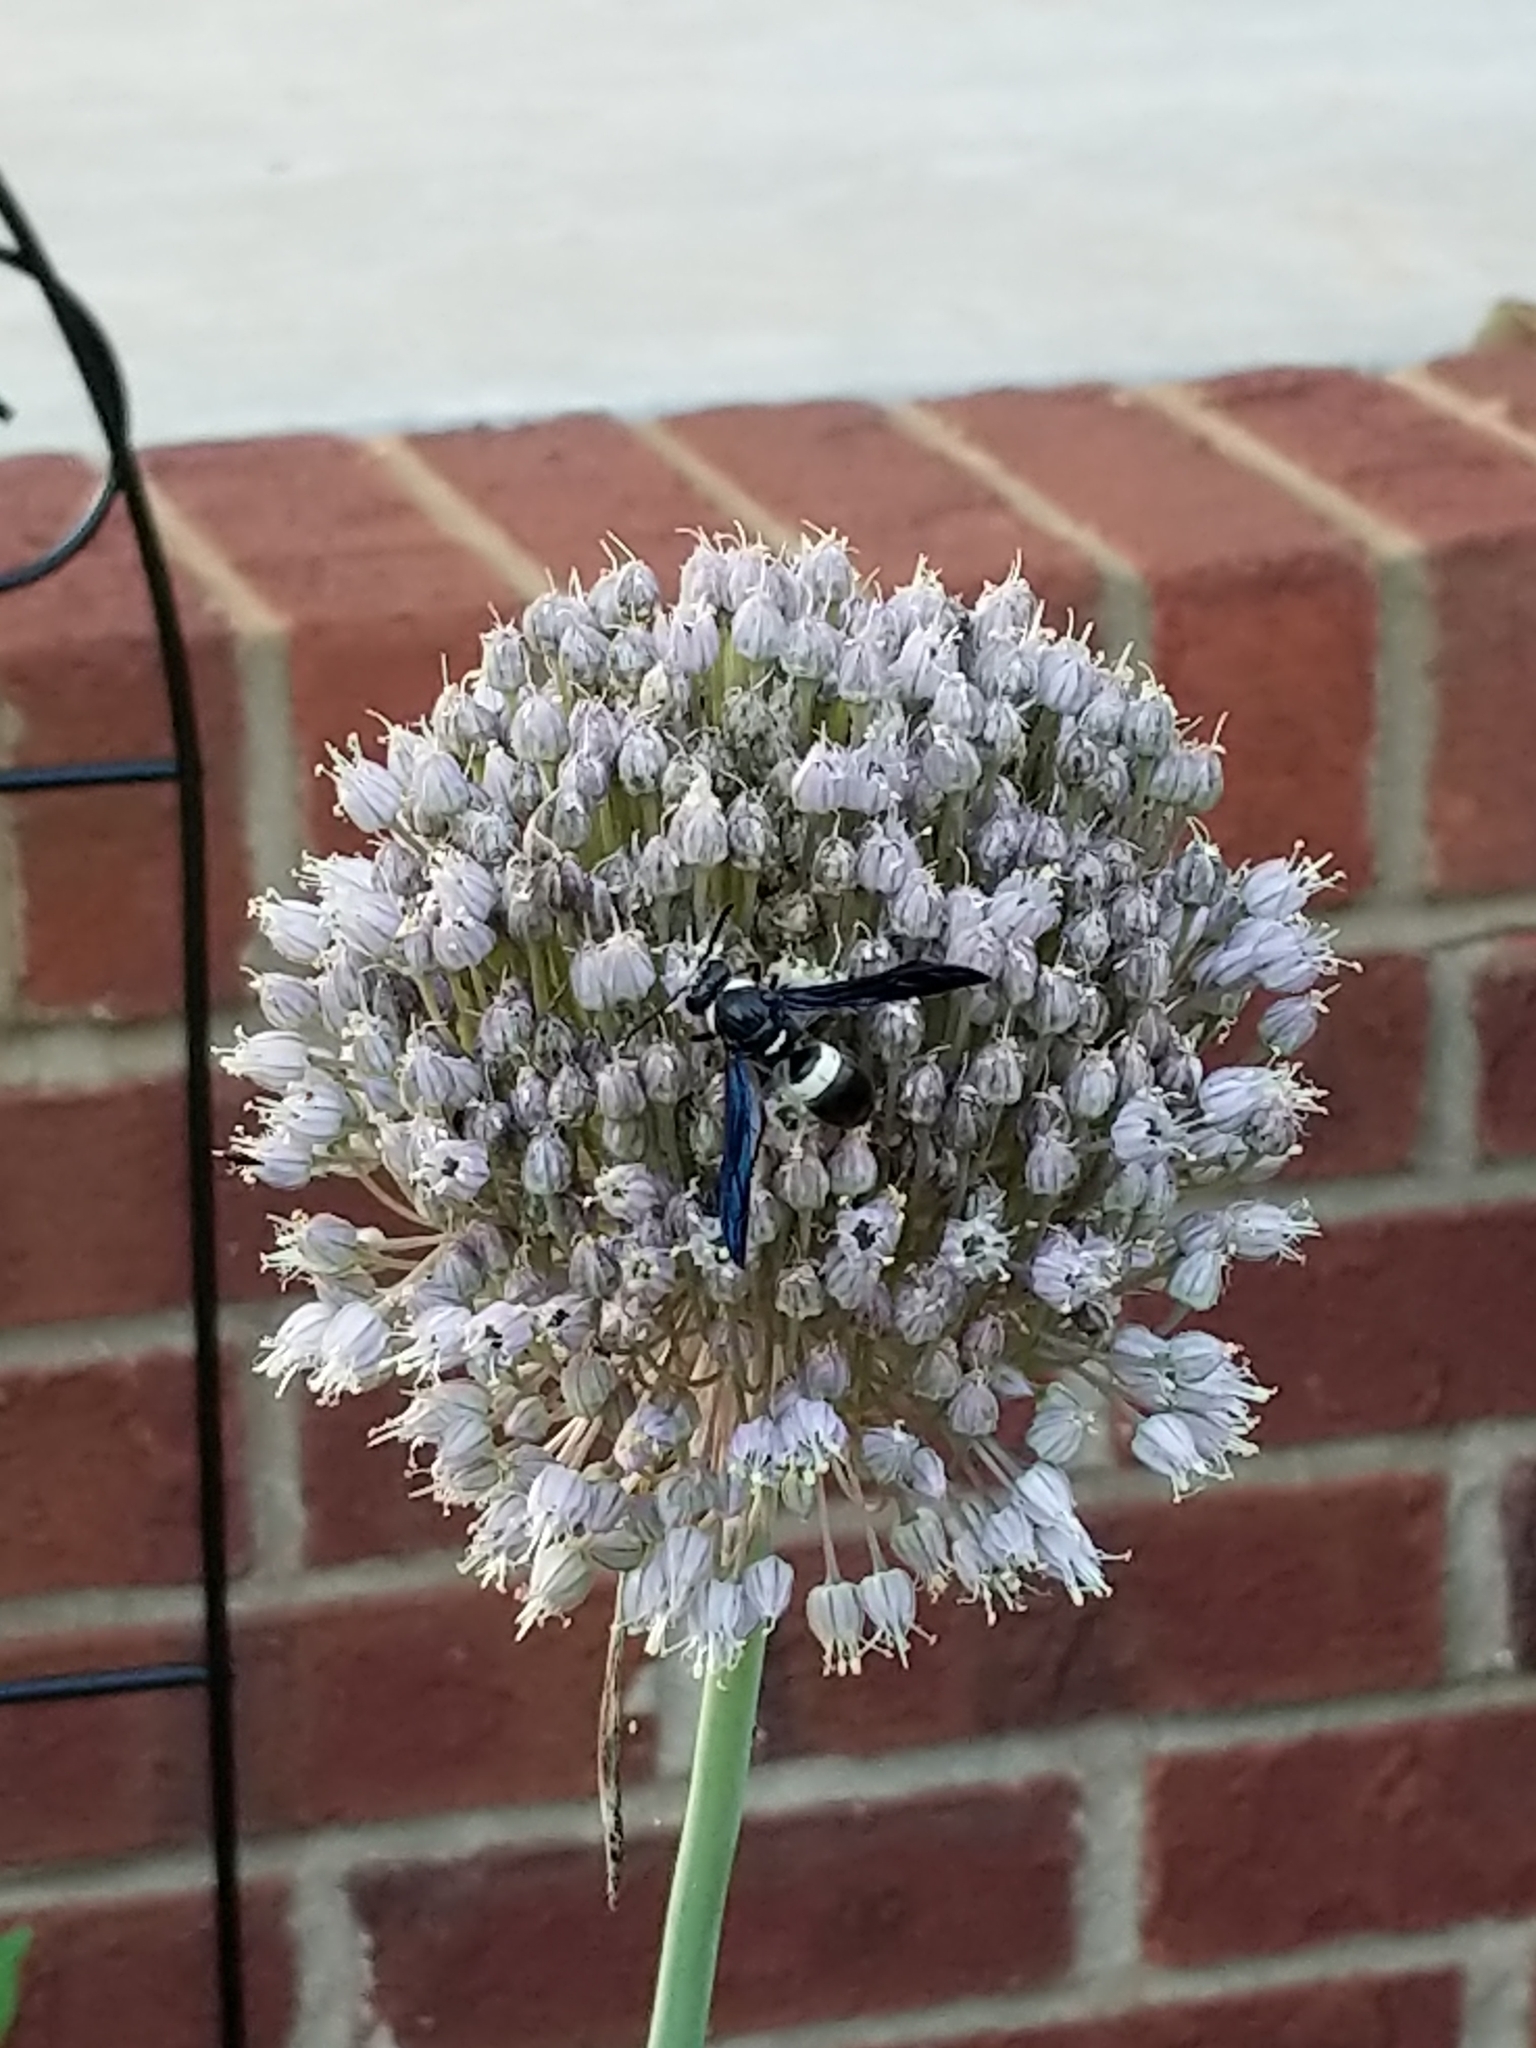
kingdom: Animalia
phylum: Arthropoda
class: Insecta
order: Hymenoptera
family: Eumenidae
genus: Monobia
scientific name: Monobia quadridens
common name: Four-toothed mason wasp
